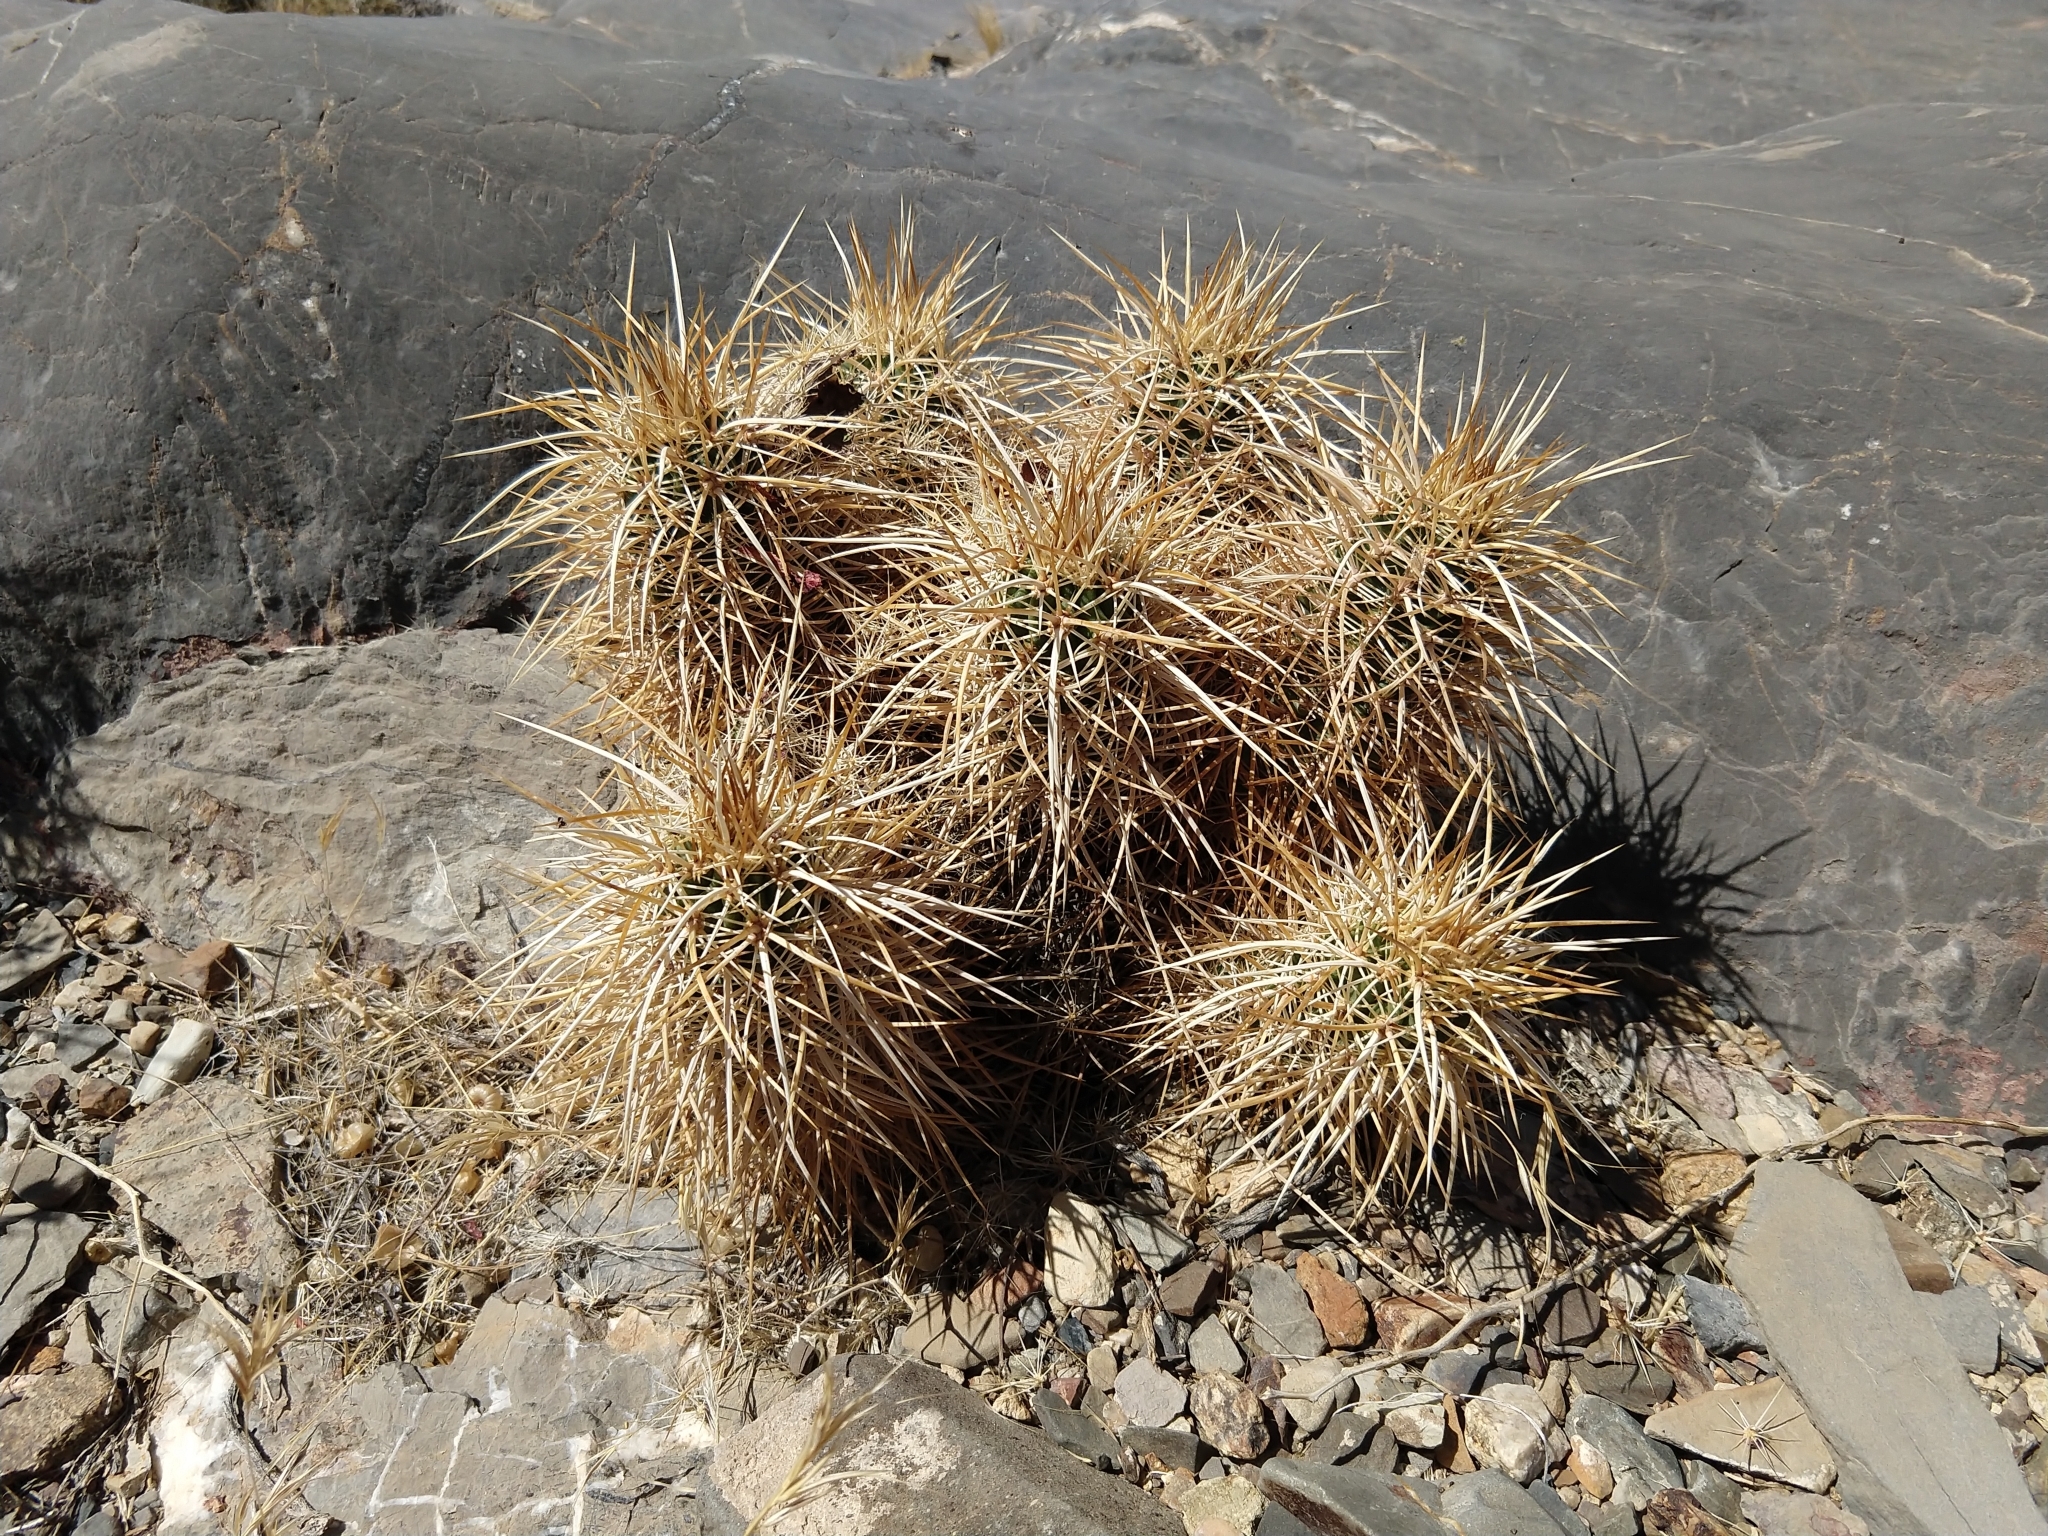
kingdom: Plantae
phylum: Tracheophyta
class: Magnoliopsida
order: Caryophyllales
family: Cactaceae
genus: Echinocereus
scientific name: Echinocereus engelmannii
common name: Engelmann's hedgehog cactus
